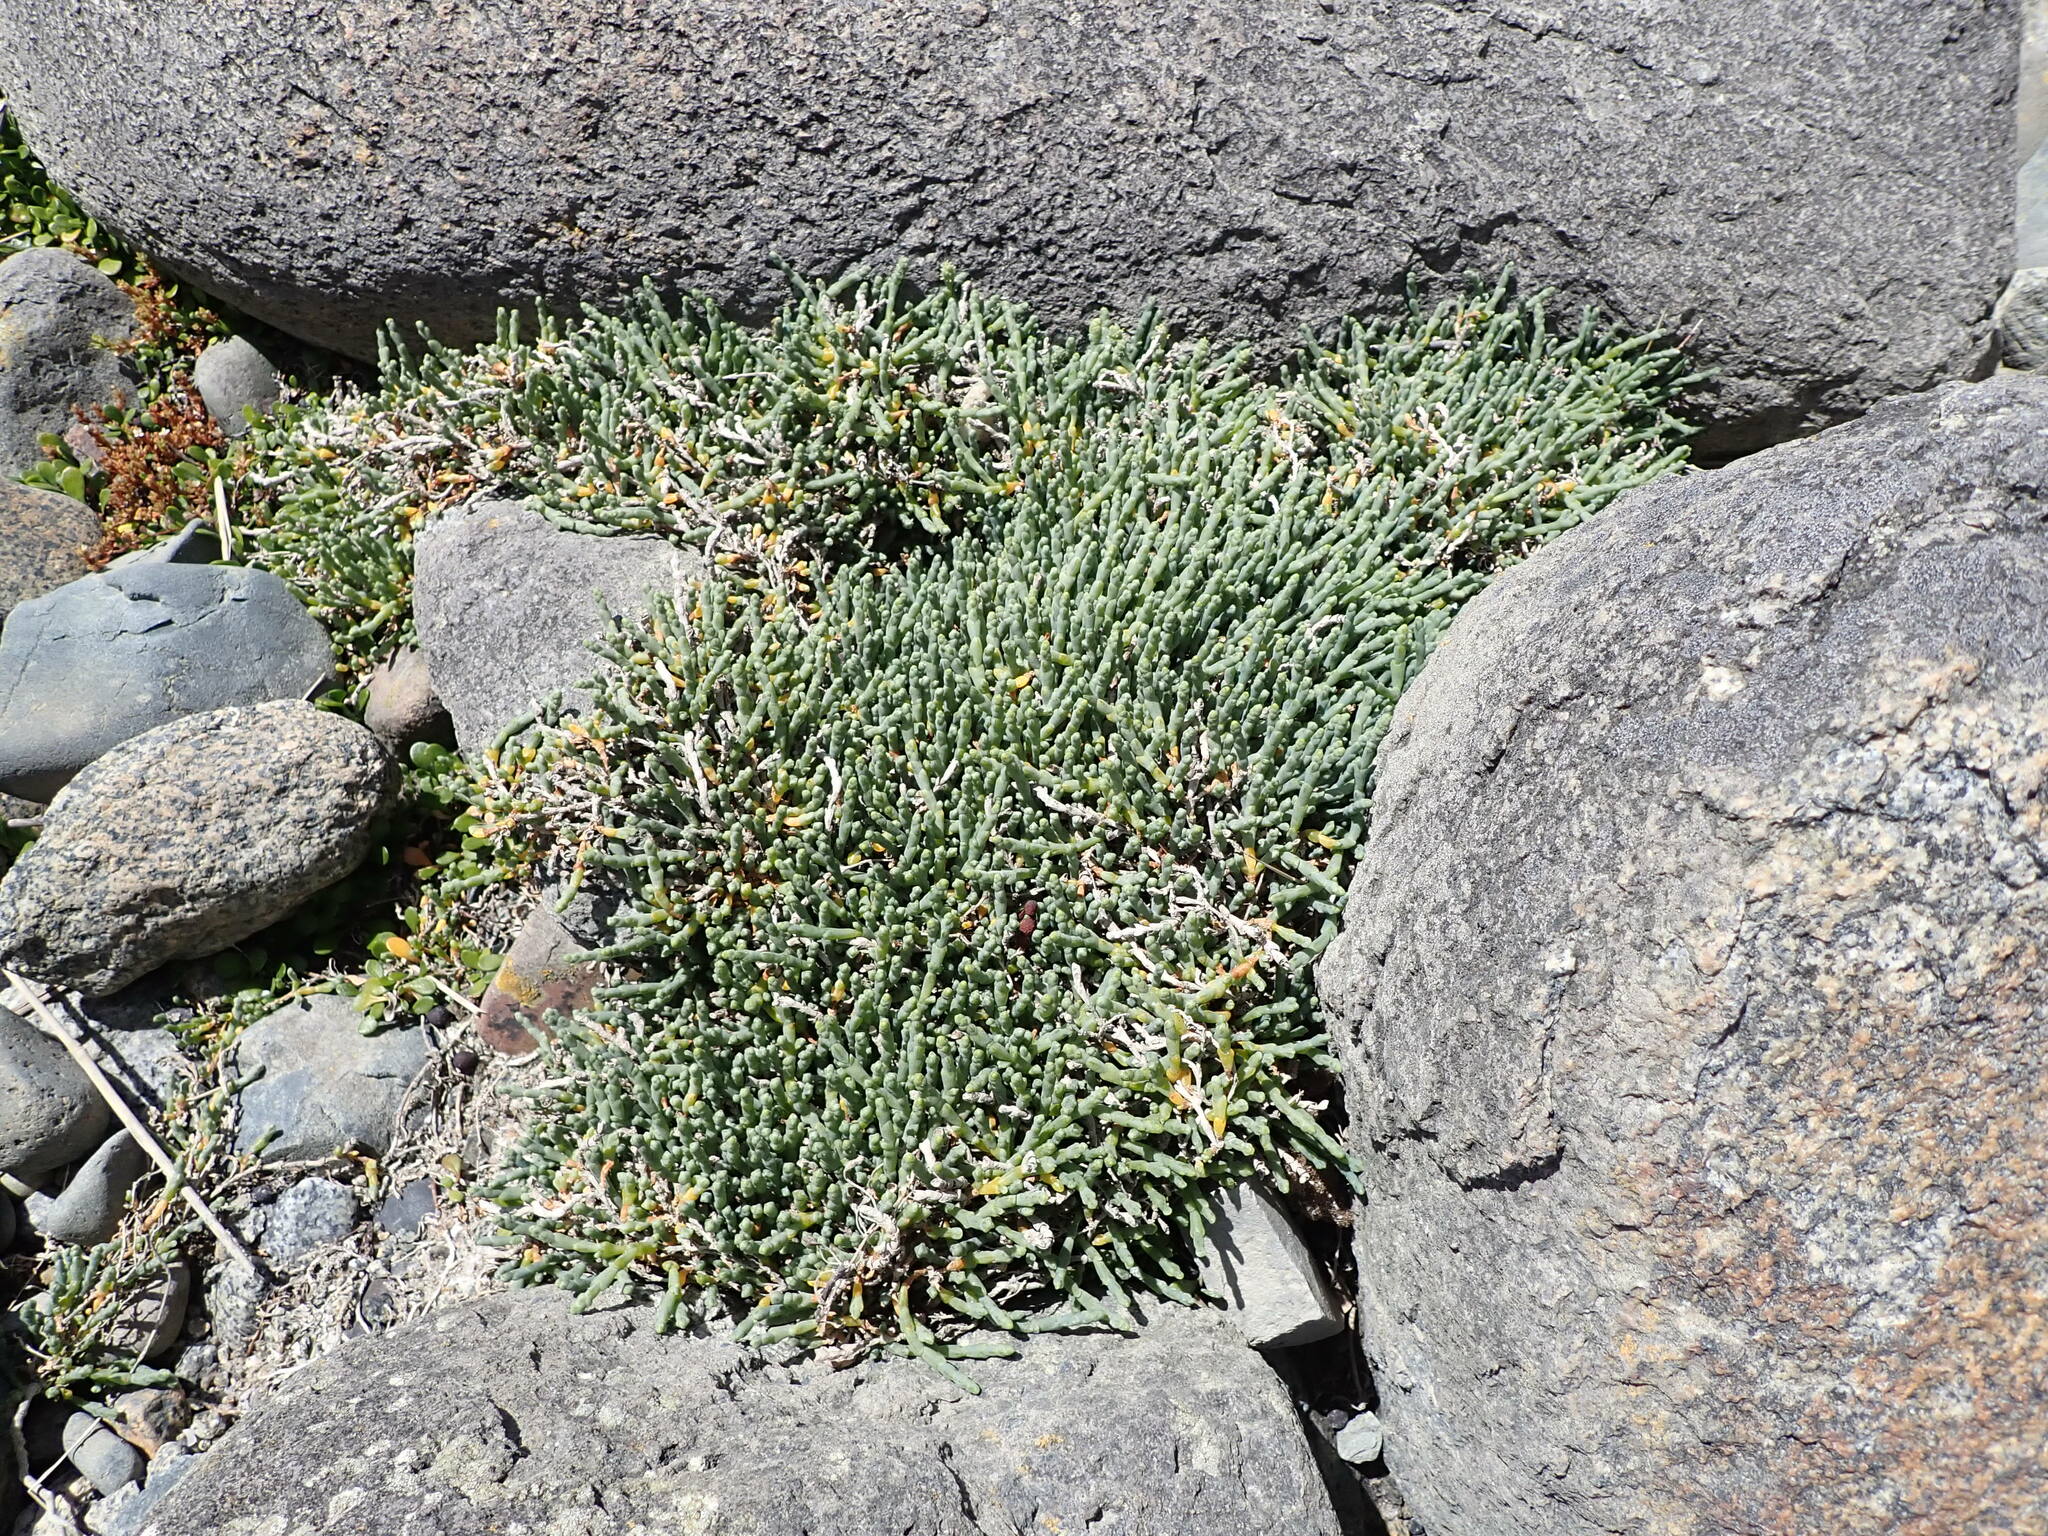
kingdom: Plantae
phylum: Tracheophyta
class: Magnoliopsida
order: Caryophyllales
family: Amaranthaceae
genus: Salicornia
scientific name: Salicornia quinqueflora
